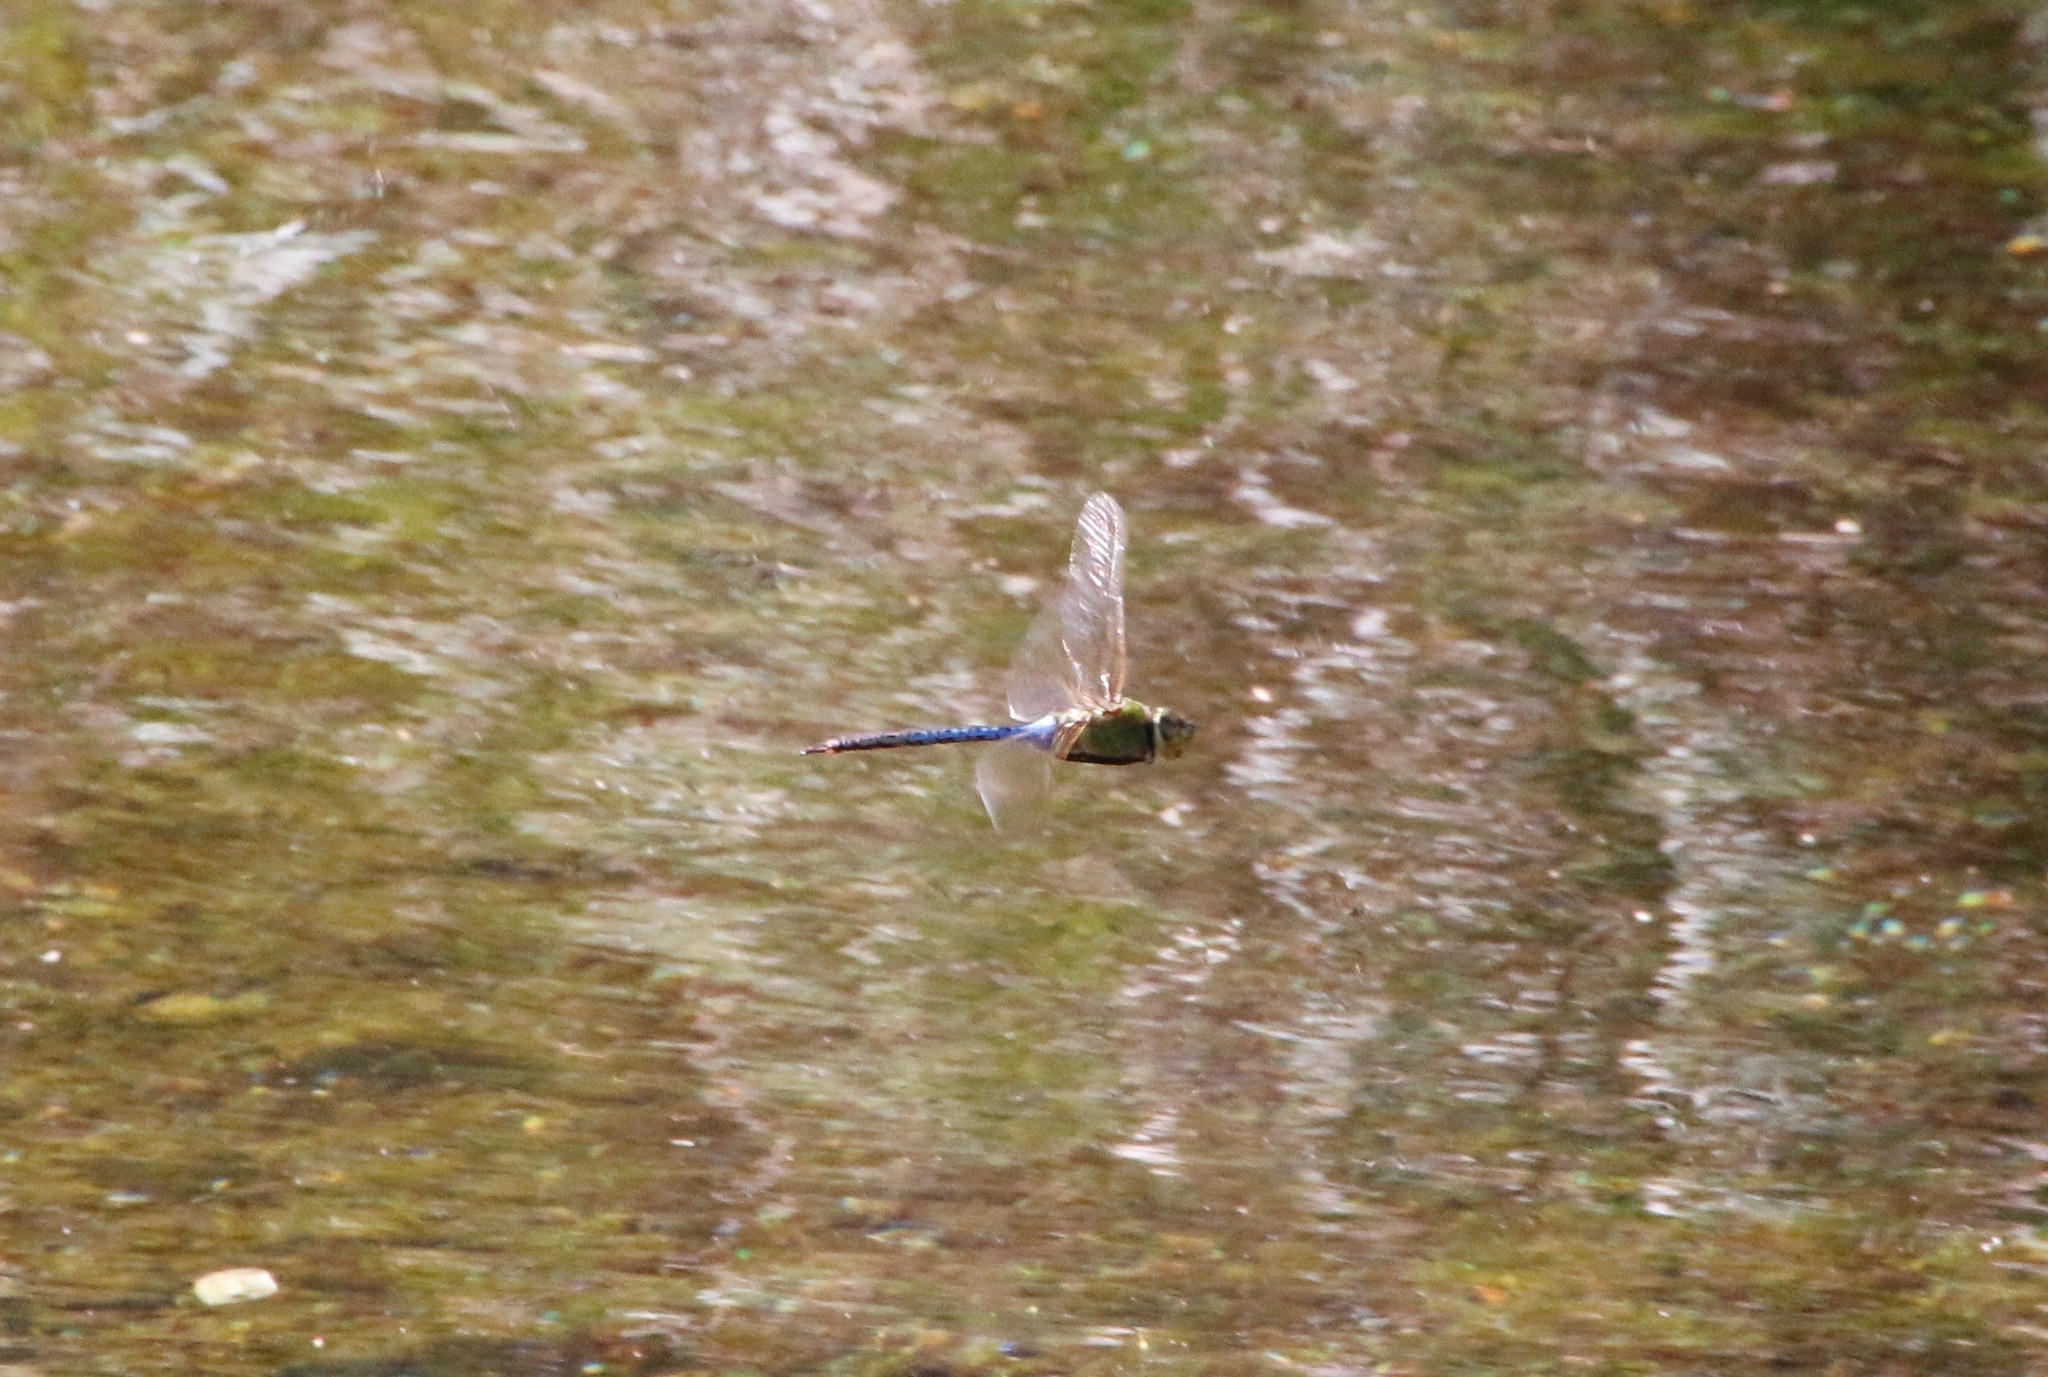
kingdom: Animalia
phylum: Arthropoda
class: Insecta
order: Odonata
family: Aeshnidae
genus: Anax
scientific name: Anax junius
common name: Common green darner
